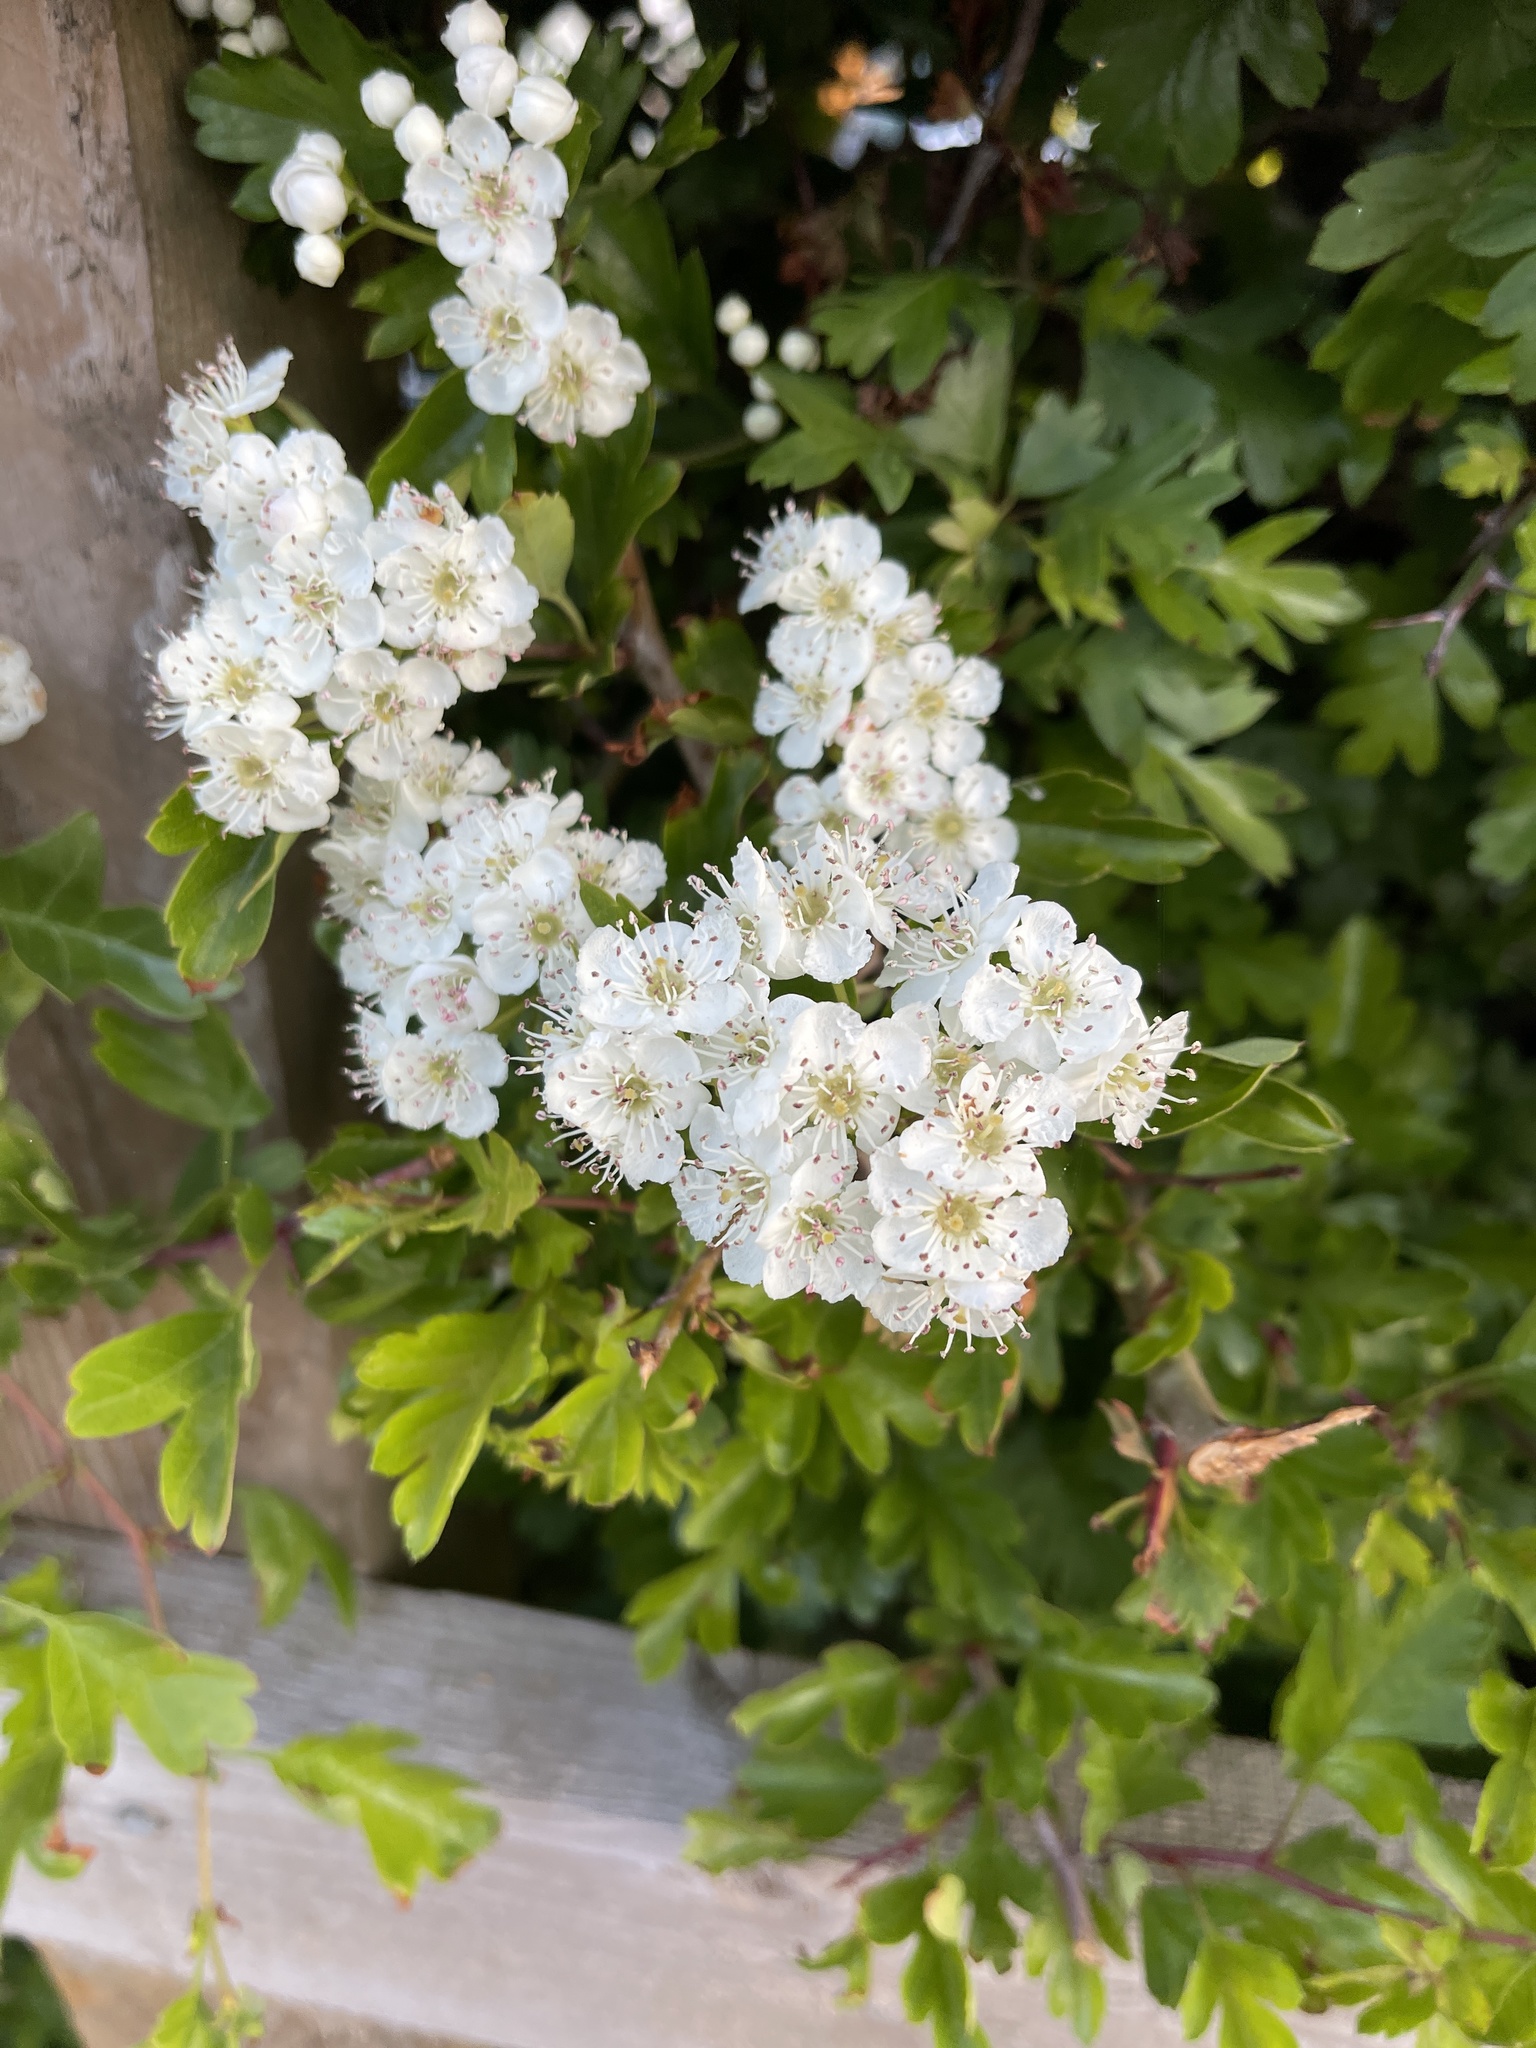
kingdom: Plantae
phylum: Tracheophyta
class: Magnoliopsida
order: Rosales
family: Rosaceae
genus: Crataegus
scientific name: Crataegus monogyna
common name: Hawthorn
